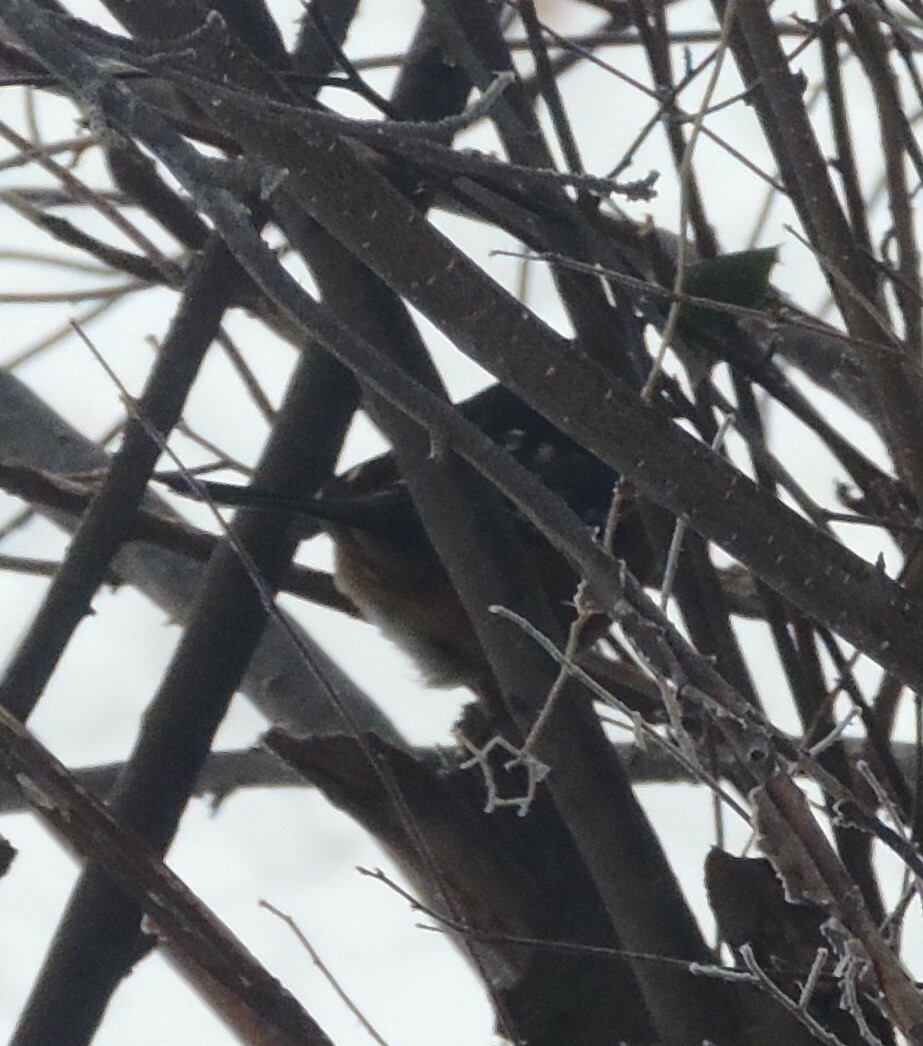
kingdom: Animalia
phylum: Chordata
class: Aves
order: Passeriformes
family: Passerellidae
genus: Pipilo
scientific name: Pipilo maculatus
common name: Spotted towhee
